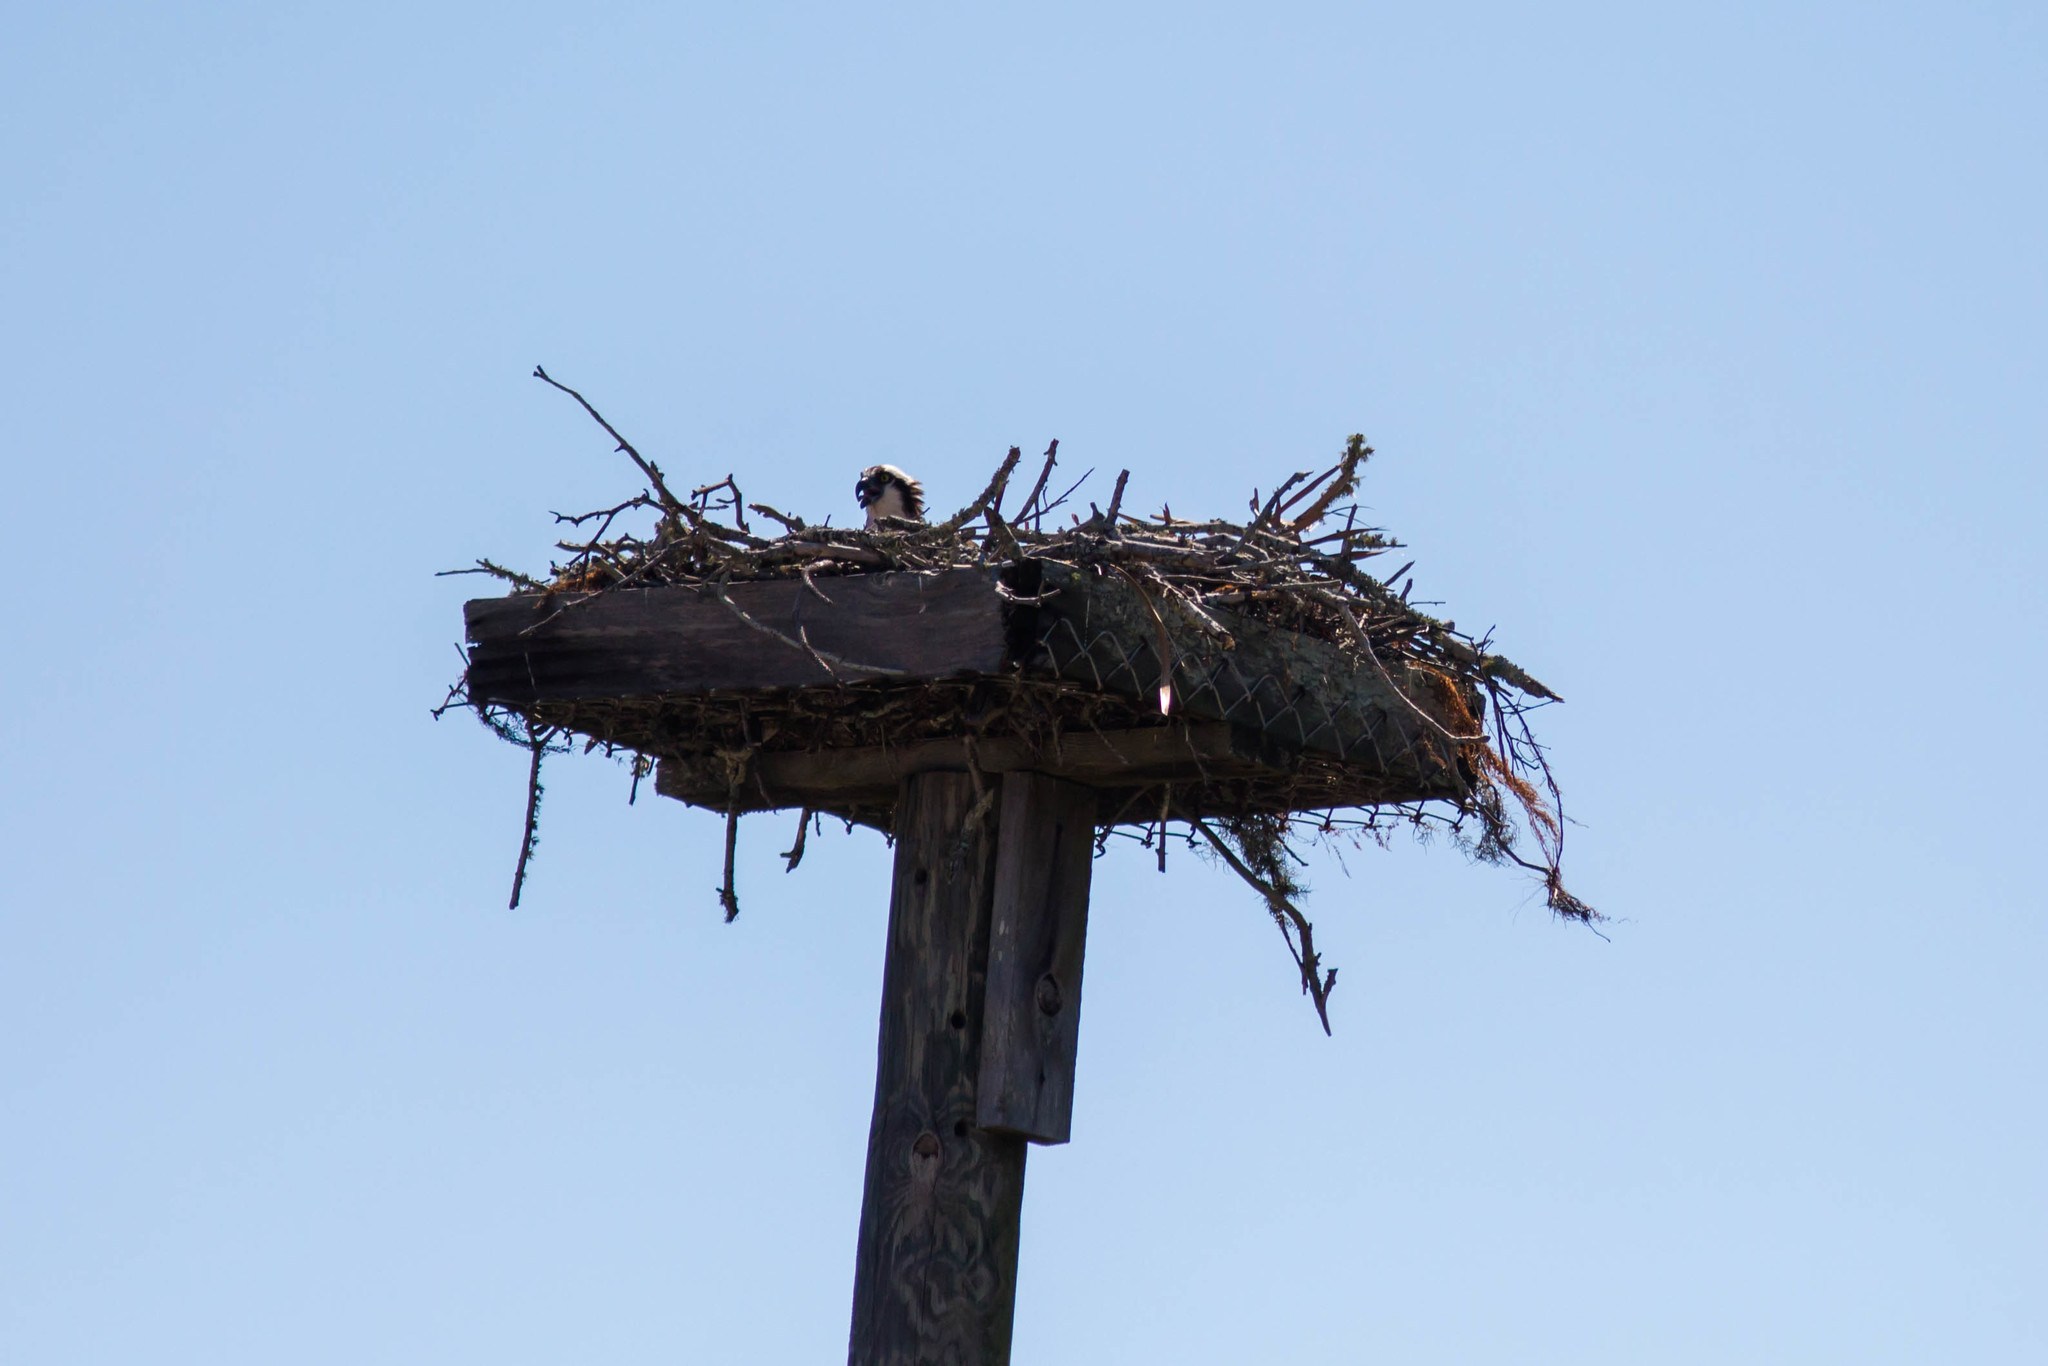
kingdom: Animalia
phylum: Chordata
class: Aves
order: Accipitriformes
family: Pandionidae
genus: Pandion
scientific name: Pandion haliaetus
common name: Osprey
